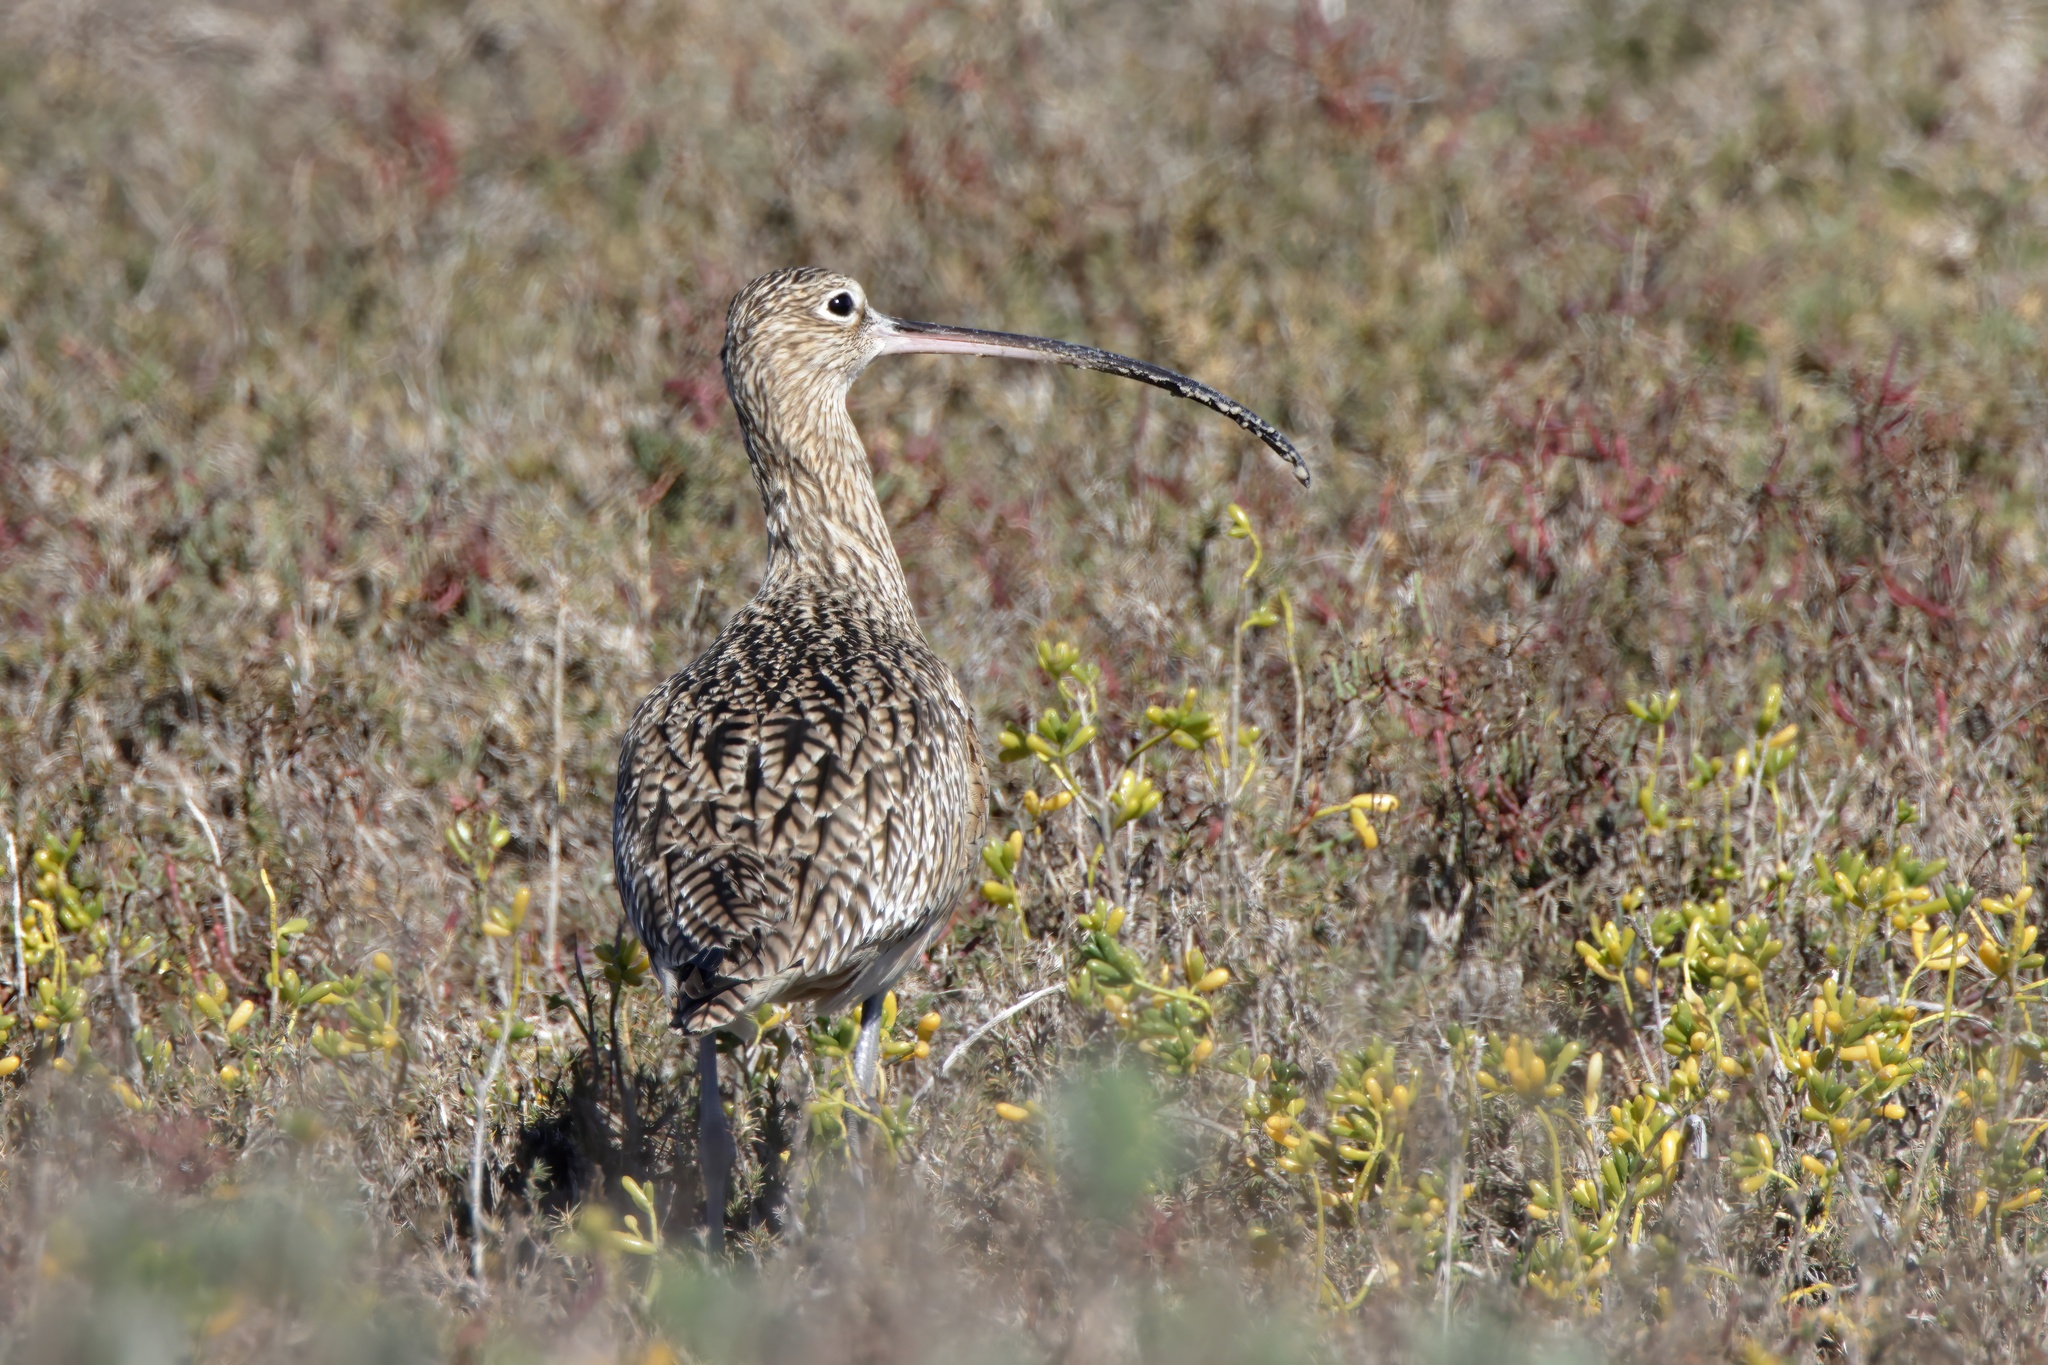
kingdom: Animalia
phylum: Chordata
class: Aves
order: Charadriiformes
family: Scolopacidae
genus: Numenius
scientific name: Numenius americanus
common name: Long-billed curlew
